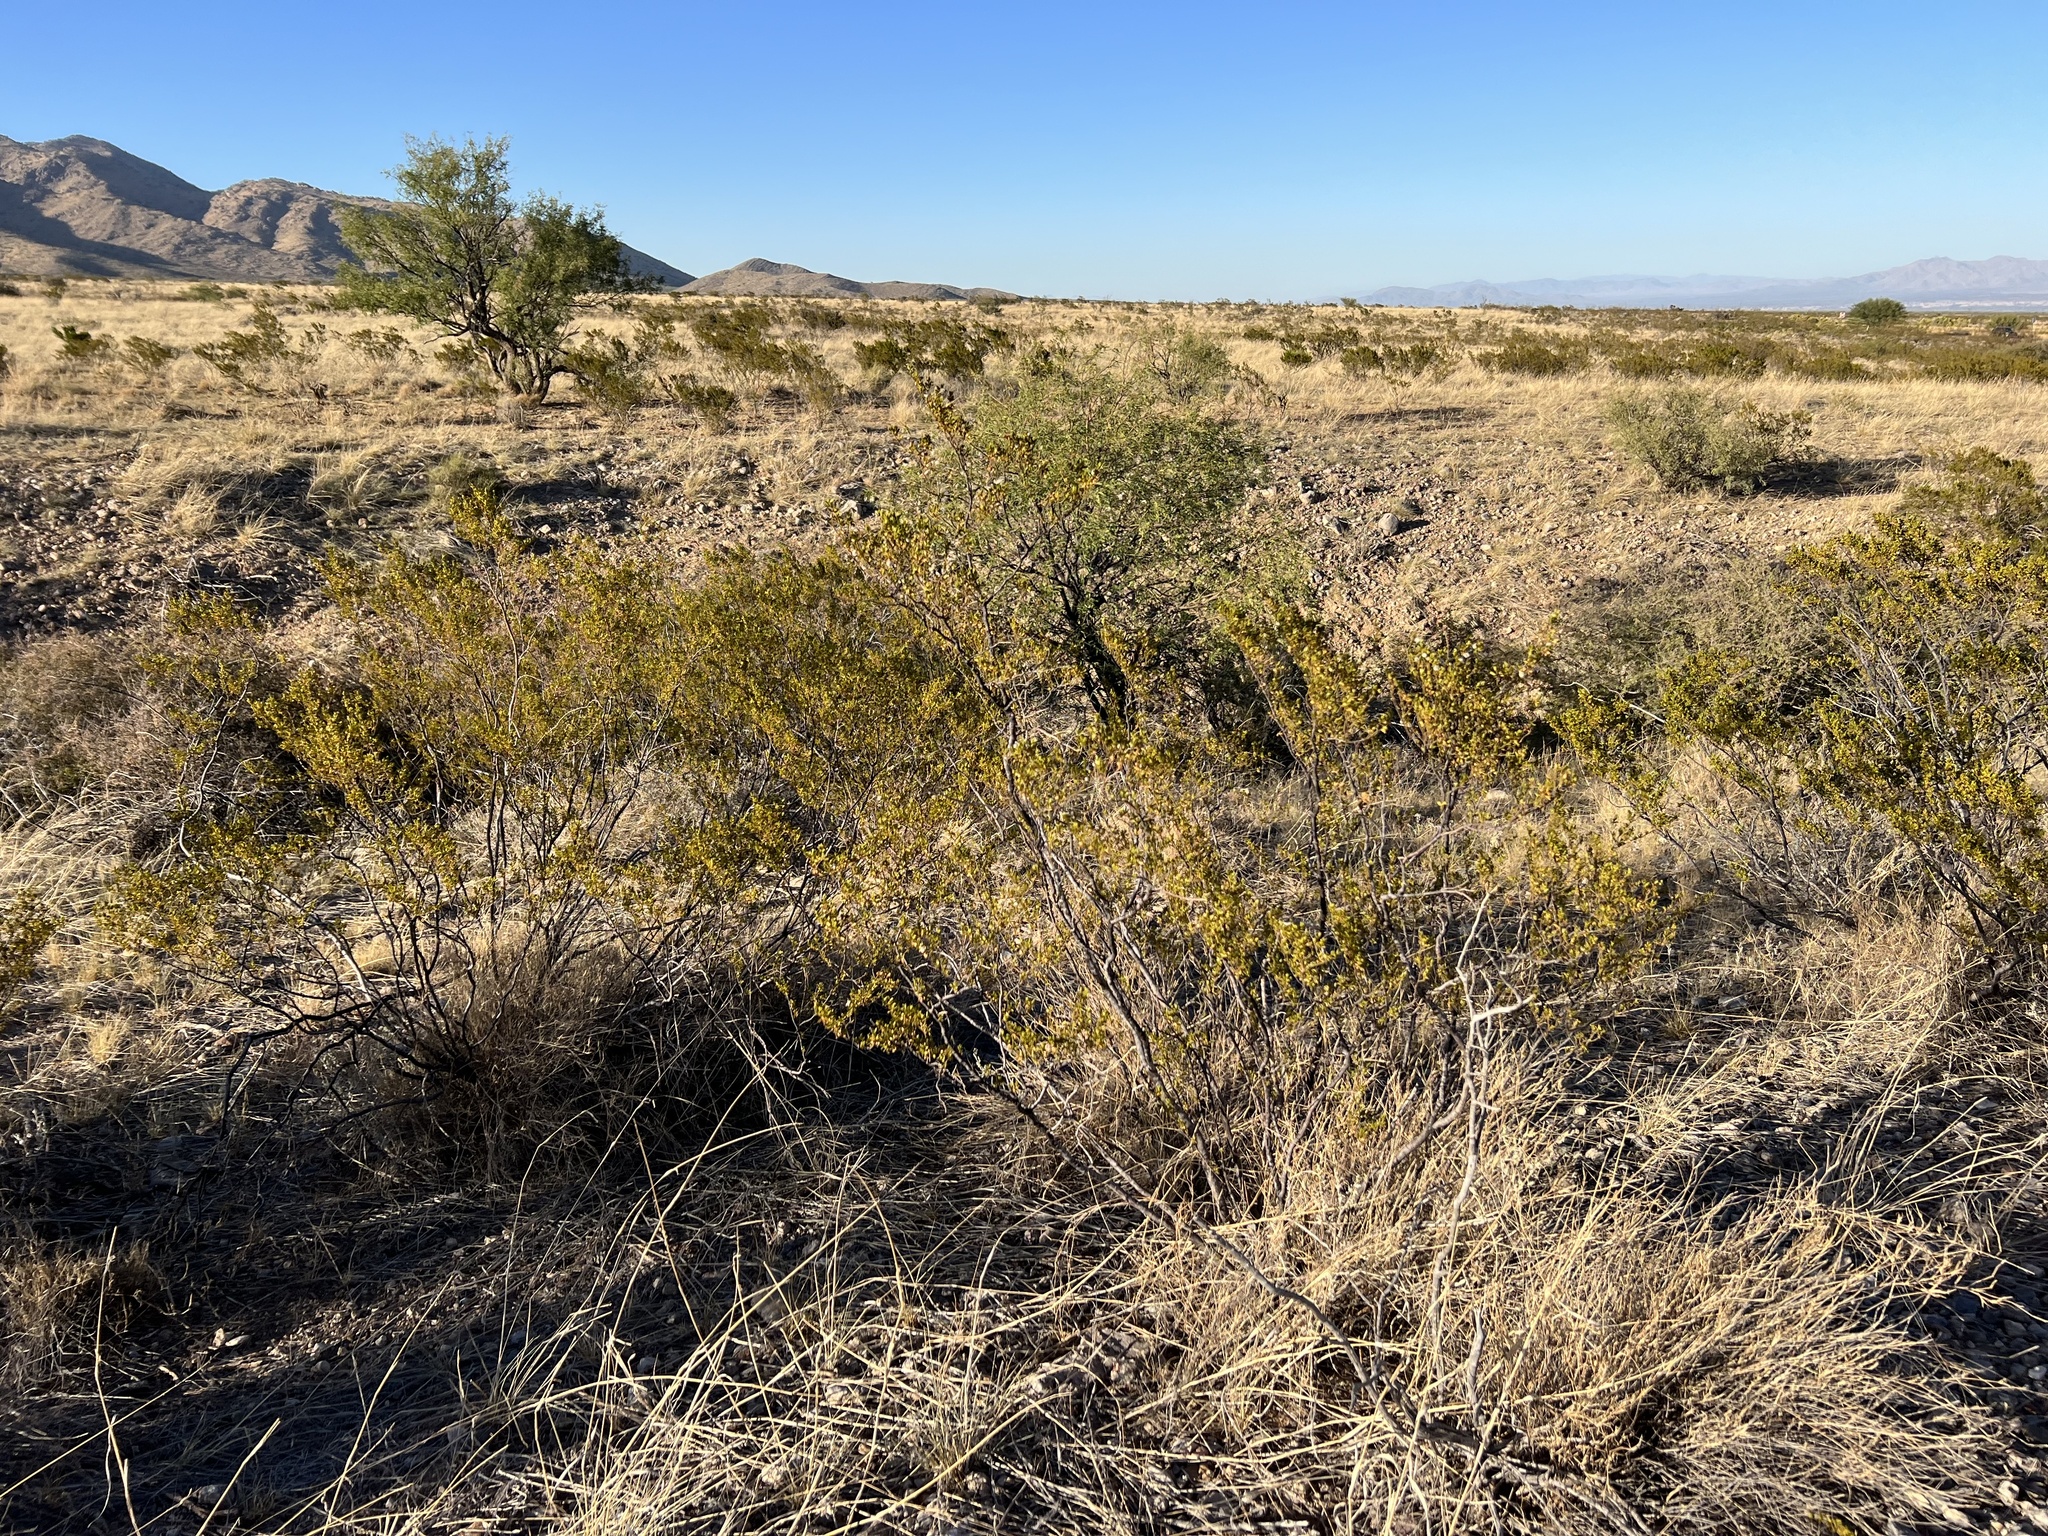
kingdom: Plantae
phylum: Tracheophyta
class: Magnoliopsida
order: Zygophyllales
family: Zygophyllaceae
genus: Larrea
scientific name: Larrea tridentata
